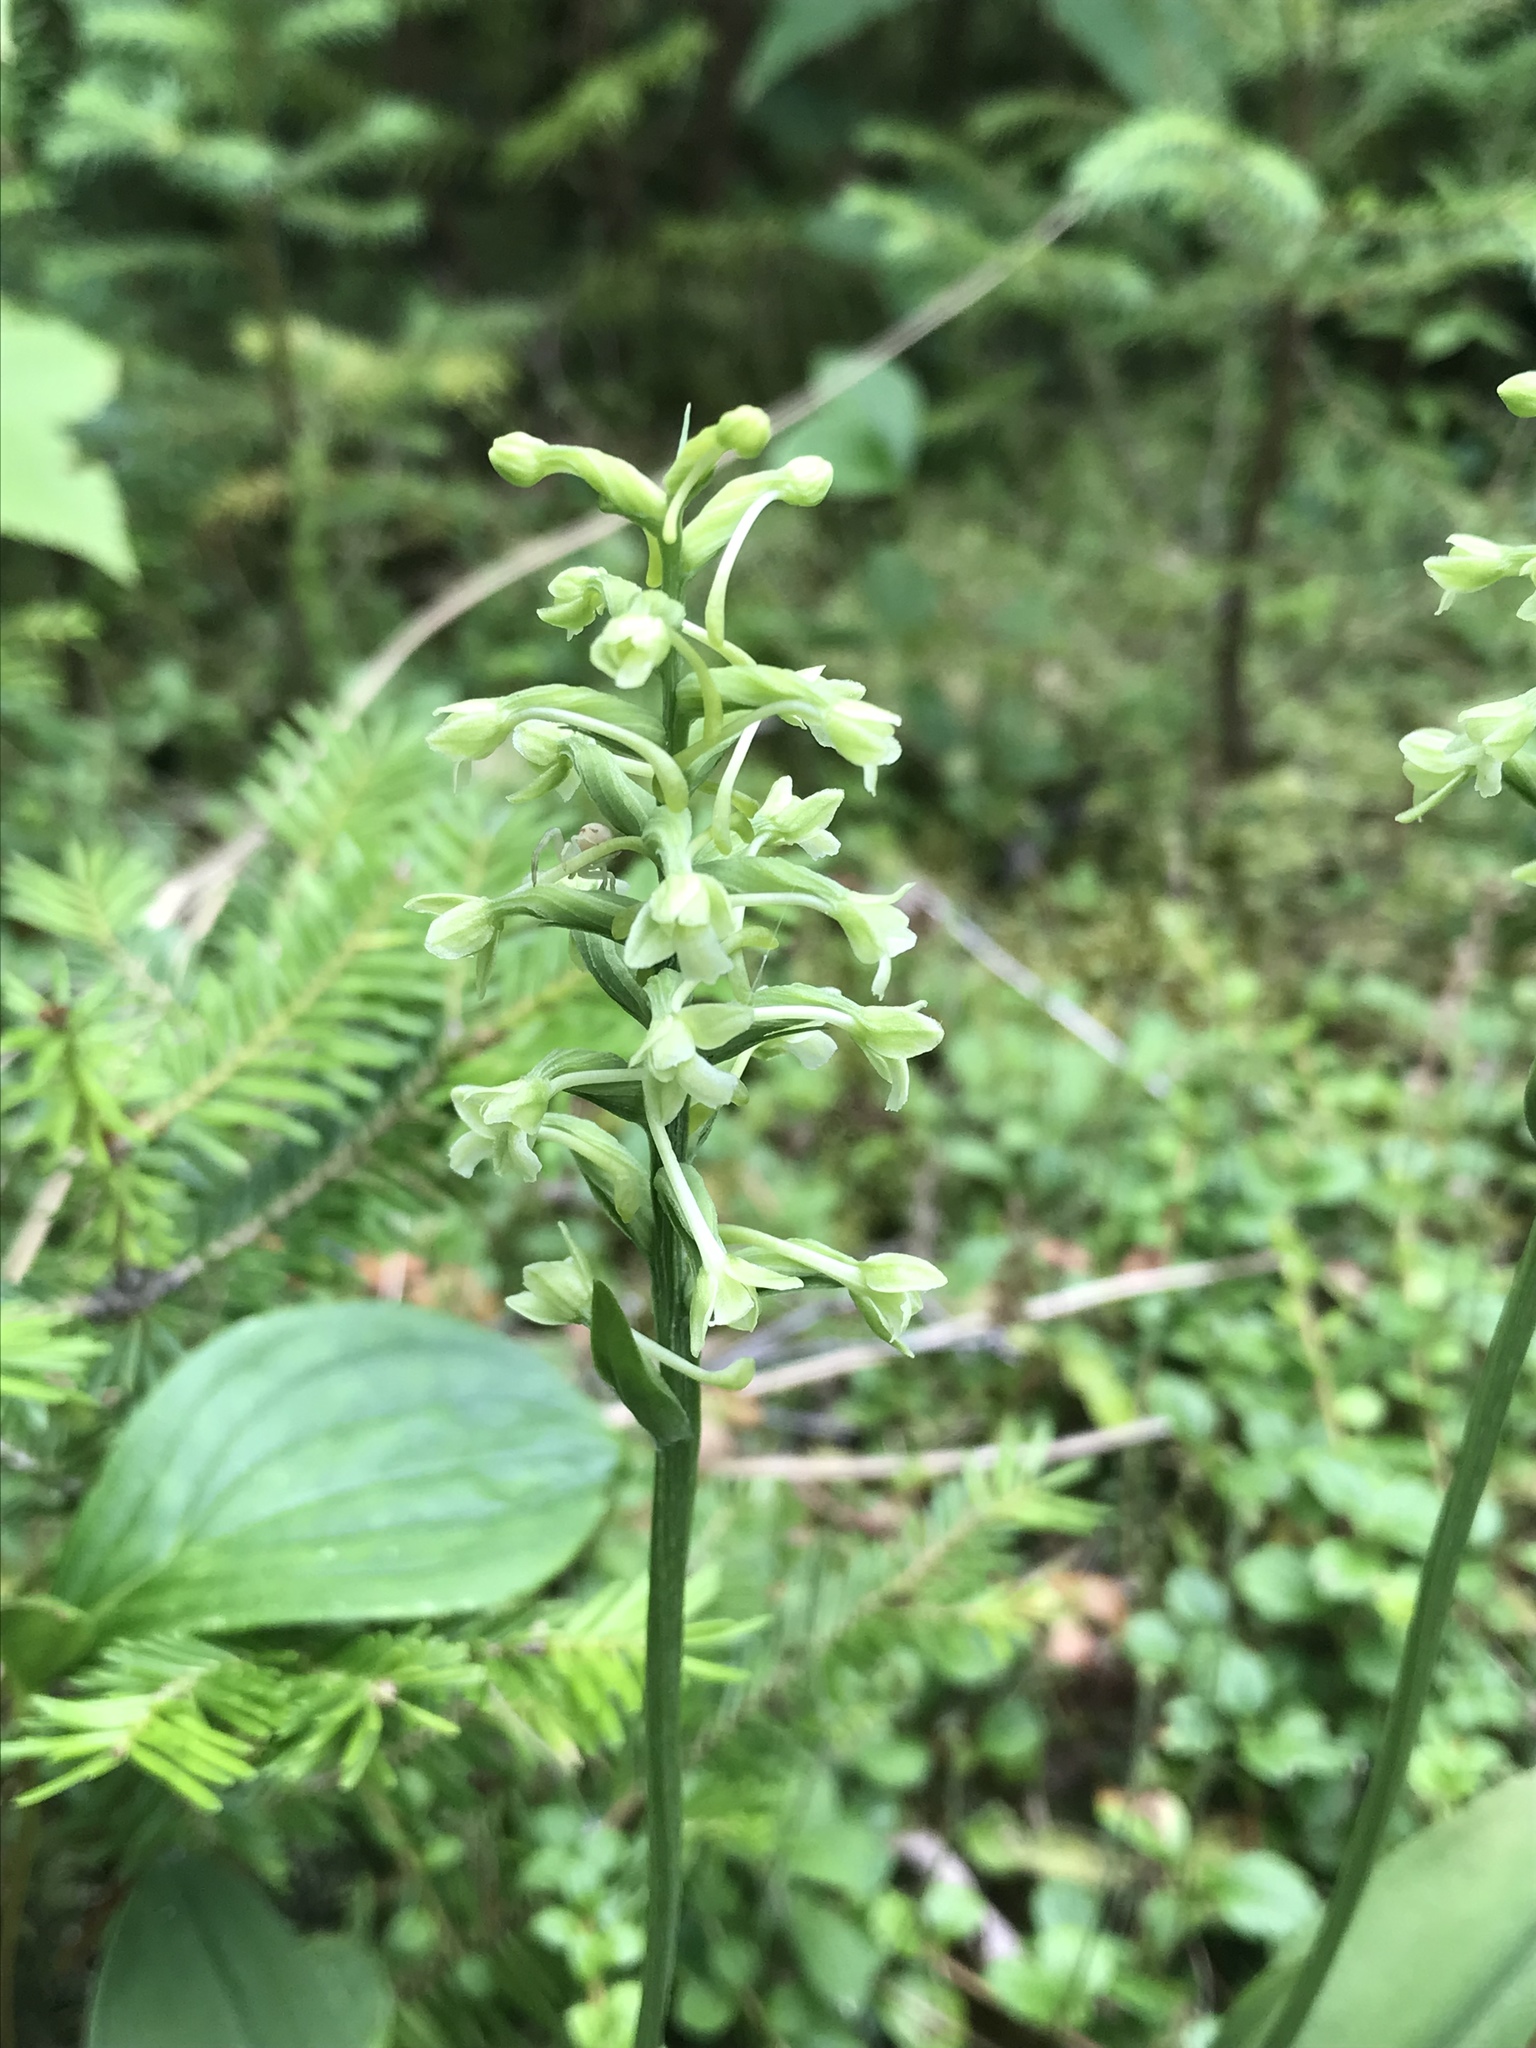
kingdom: Plantae
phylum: Tracheophyta
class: Liliopsida
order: Asparagales
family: Orchidaceae
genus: Platanthera
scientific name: Platanthera clavellata
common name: Club-spur orchid
